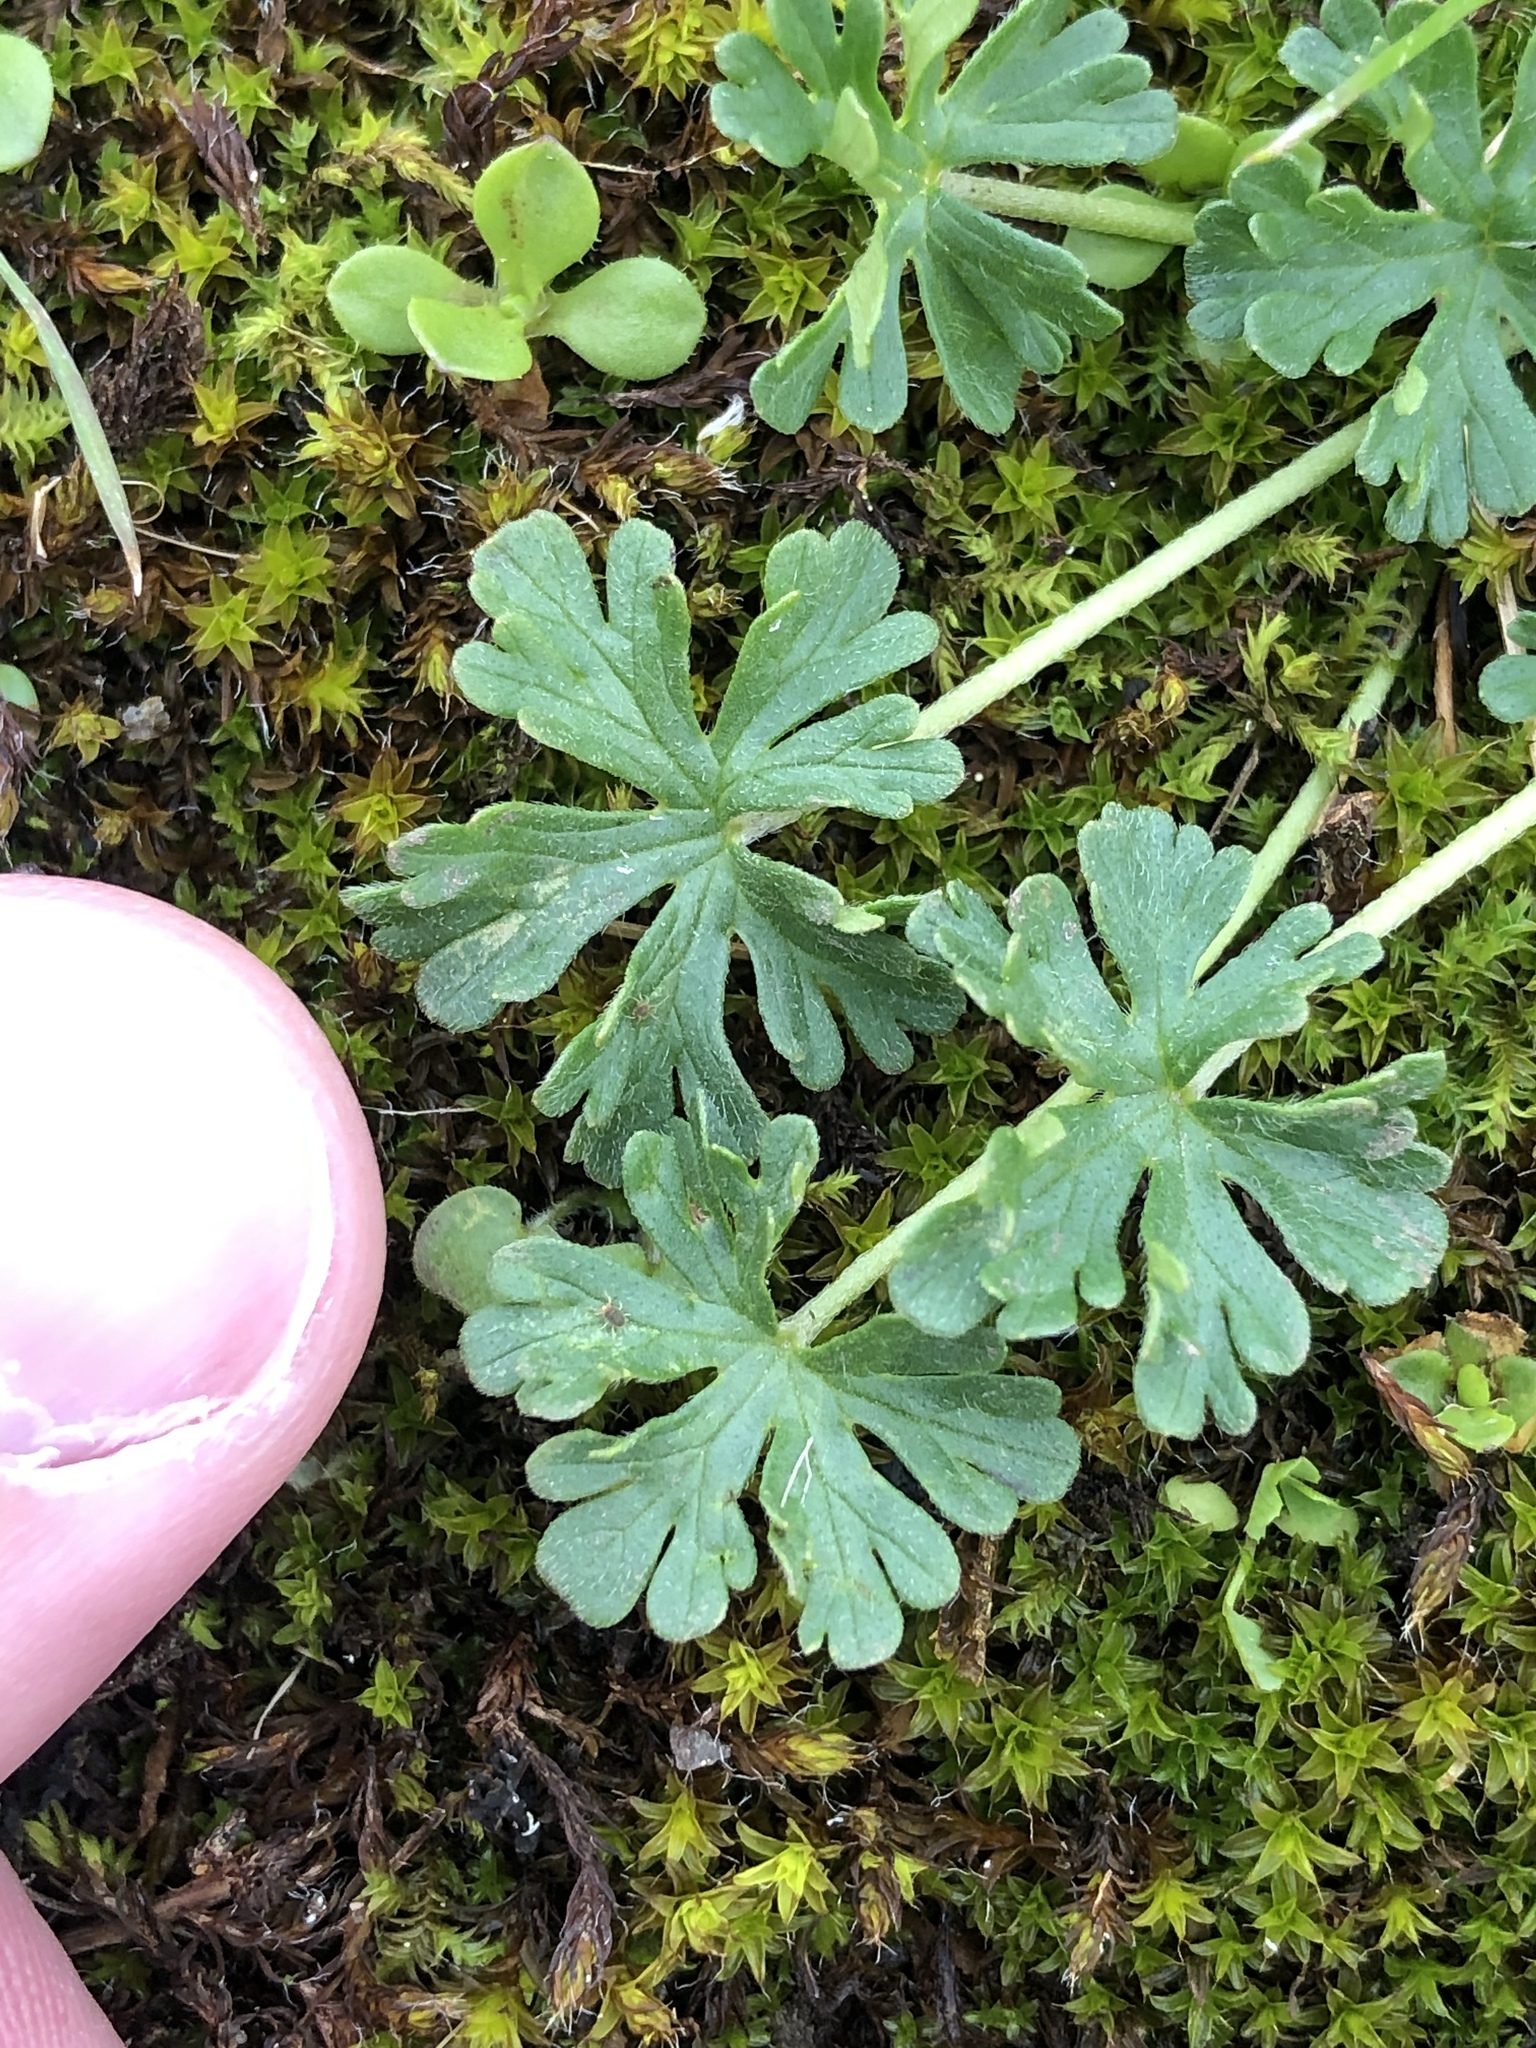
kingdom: Plantae
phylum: Tracheophyta
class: Magnoliopsida
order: Geraniales
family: Geraniaceae
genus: Geranium
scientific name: Geranium retrorsum
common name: New zealand geranium
